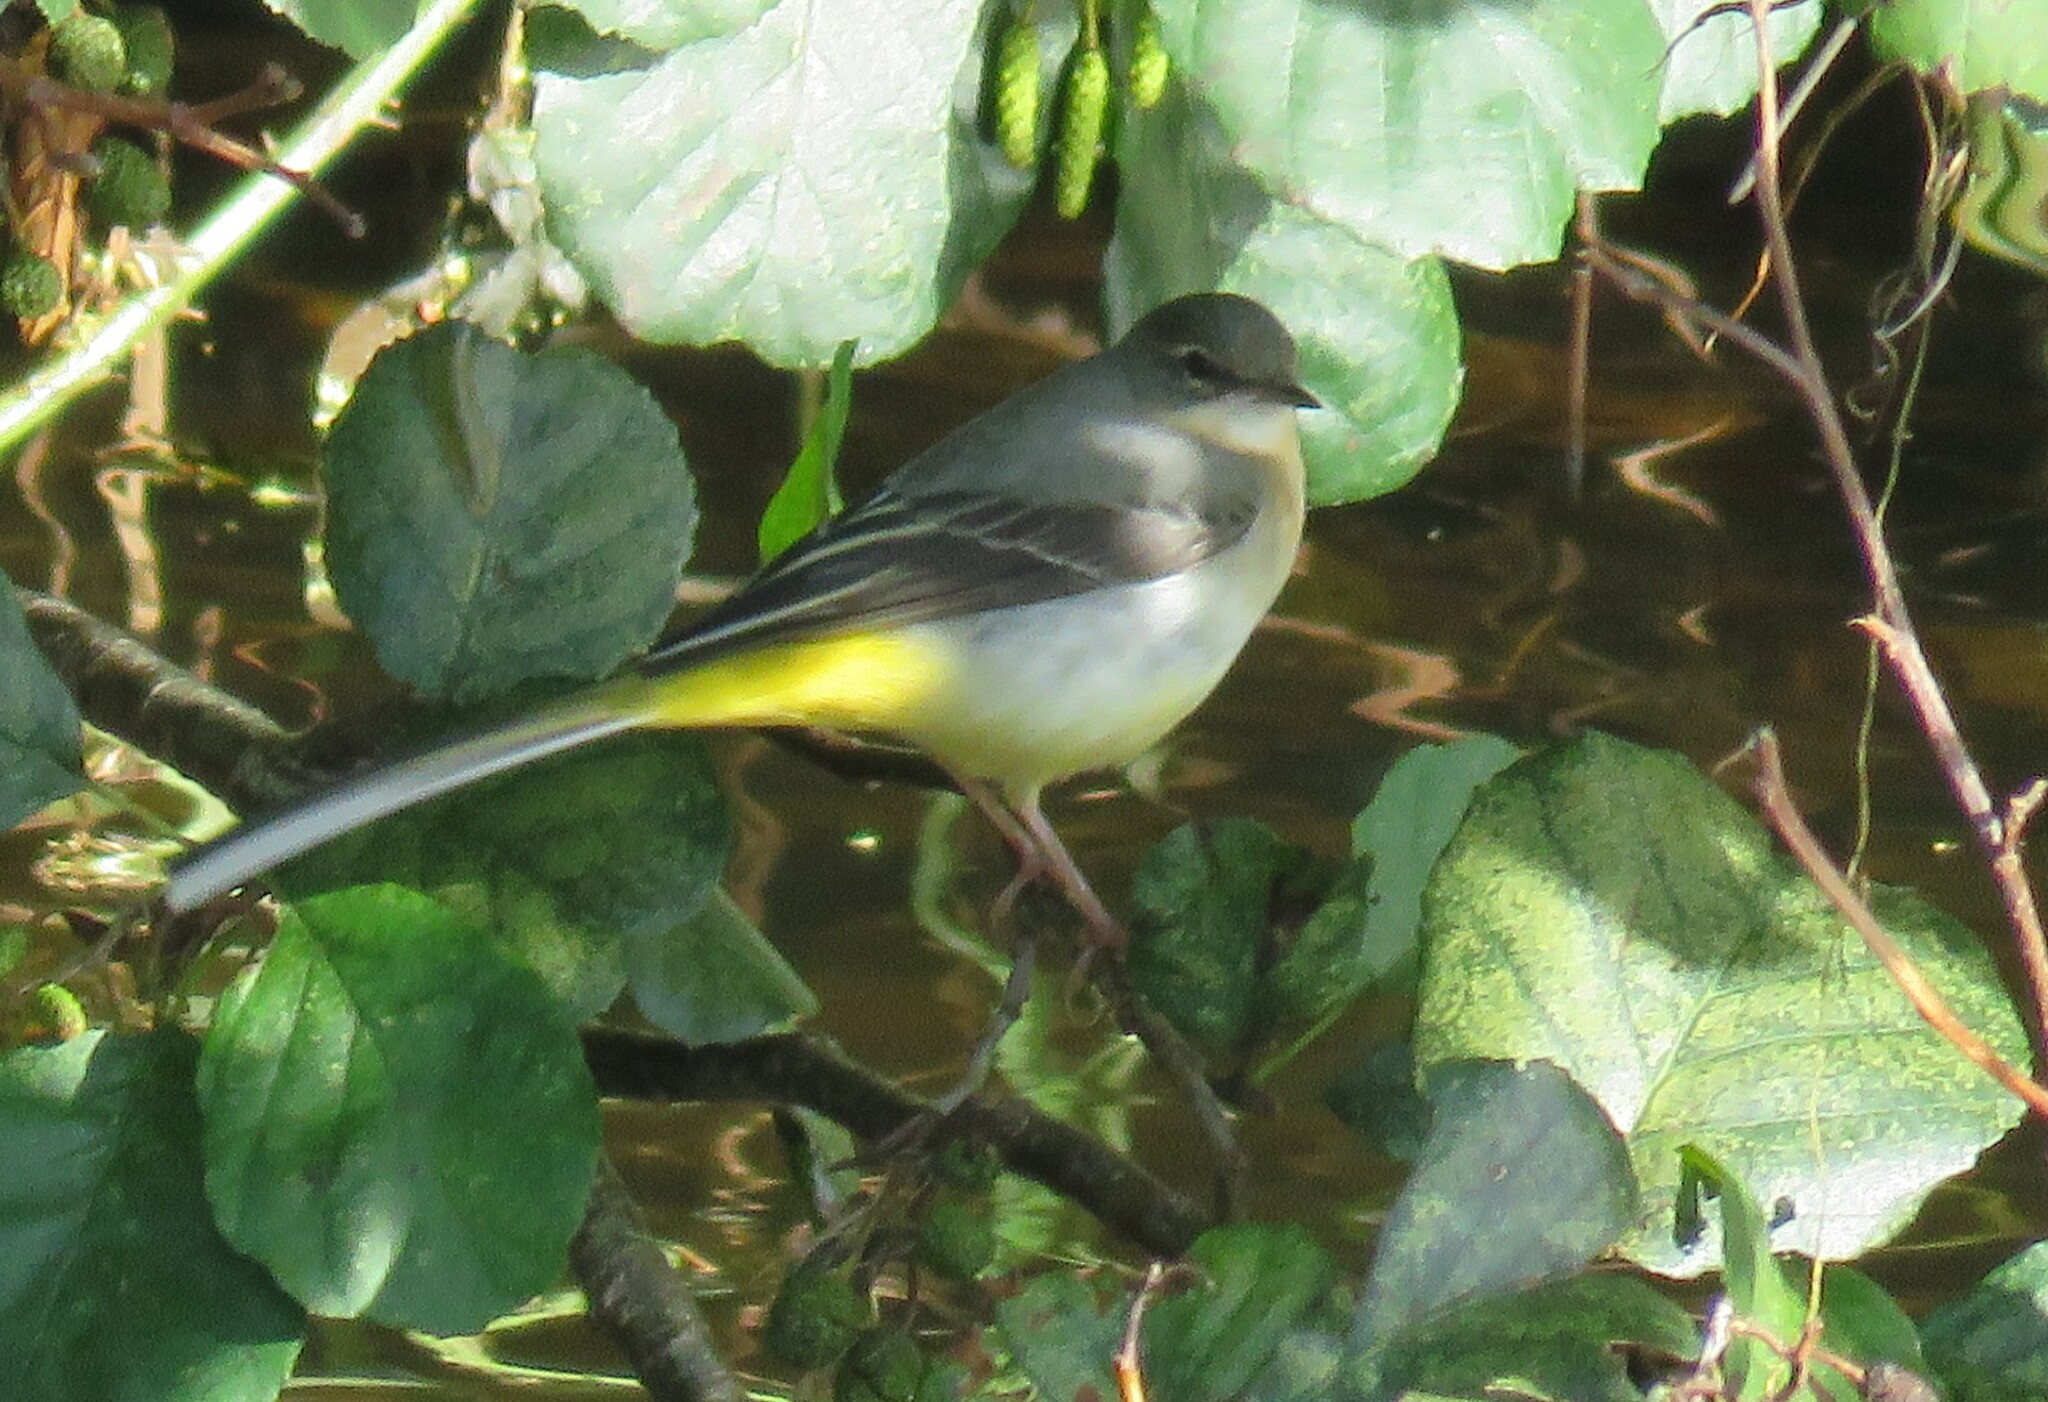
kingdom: Animalia
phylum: Chordata
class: Aves
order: Passeriformes
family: Motacillidae
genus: Motacilla
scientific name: Motacilla cinerea
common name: Grey wagtail
